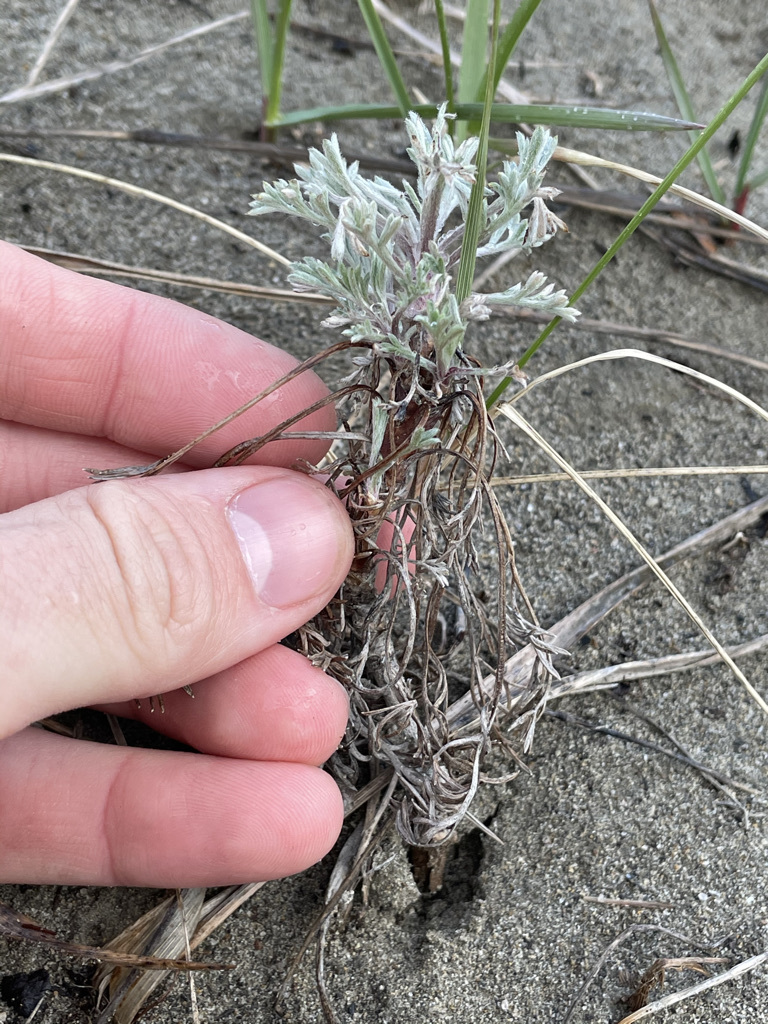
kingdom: Plantae
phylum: Tracheophyta
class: Magnoliopsida
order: Asterales
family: Asteraceae
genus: Artemisia
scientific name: Artemisia campestris
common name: Field wormwood
